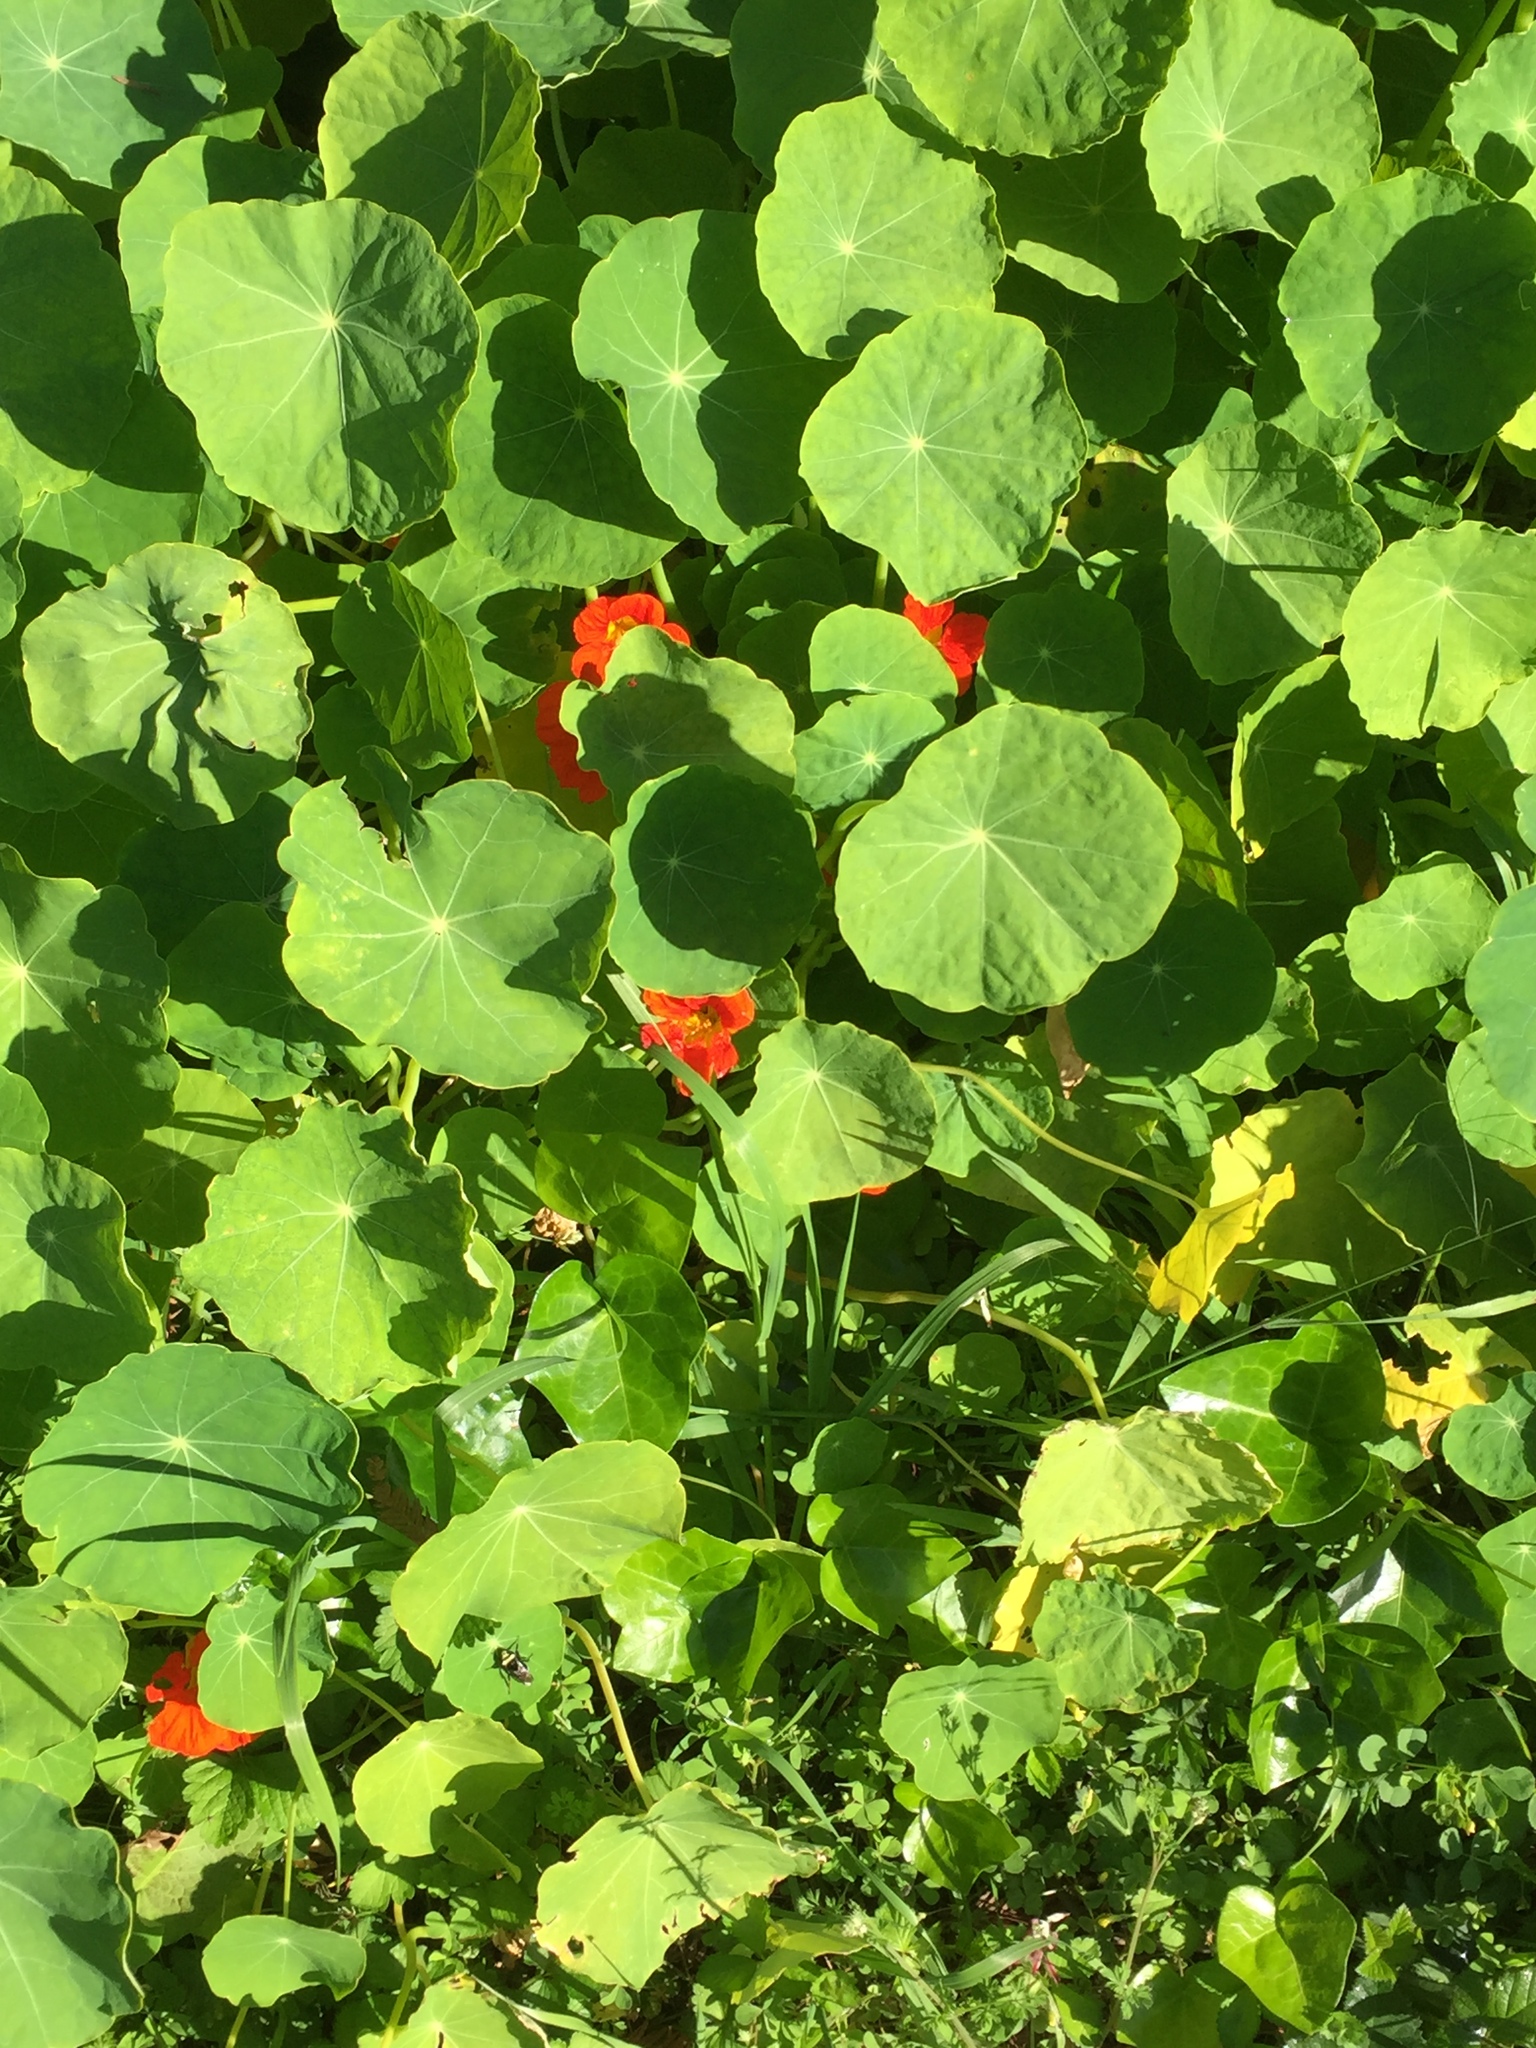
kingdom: Plantae
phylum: Tracheophyta
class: Magnoliopsida
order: Brassicales
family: Tropaeolaceae
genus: Tropaeolum
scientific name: Tropaeolum majus
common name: Nasturtium
